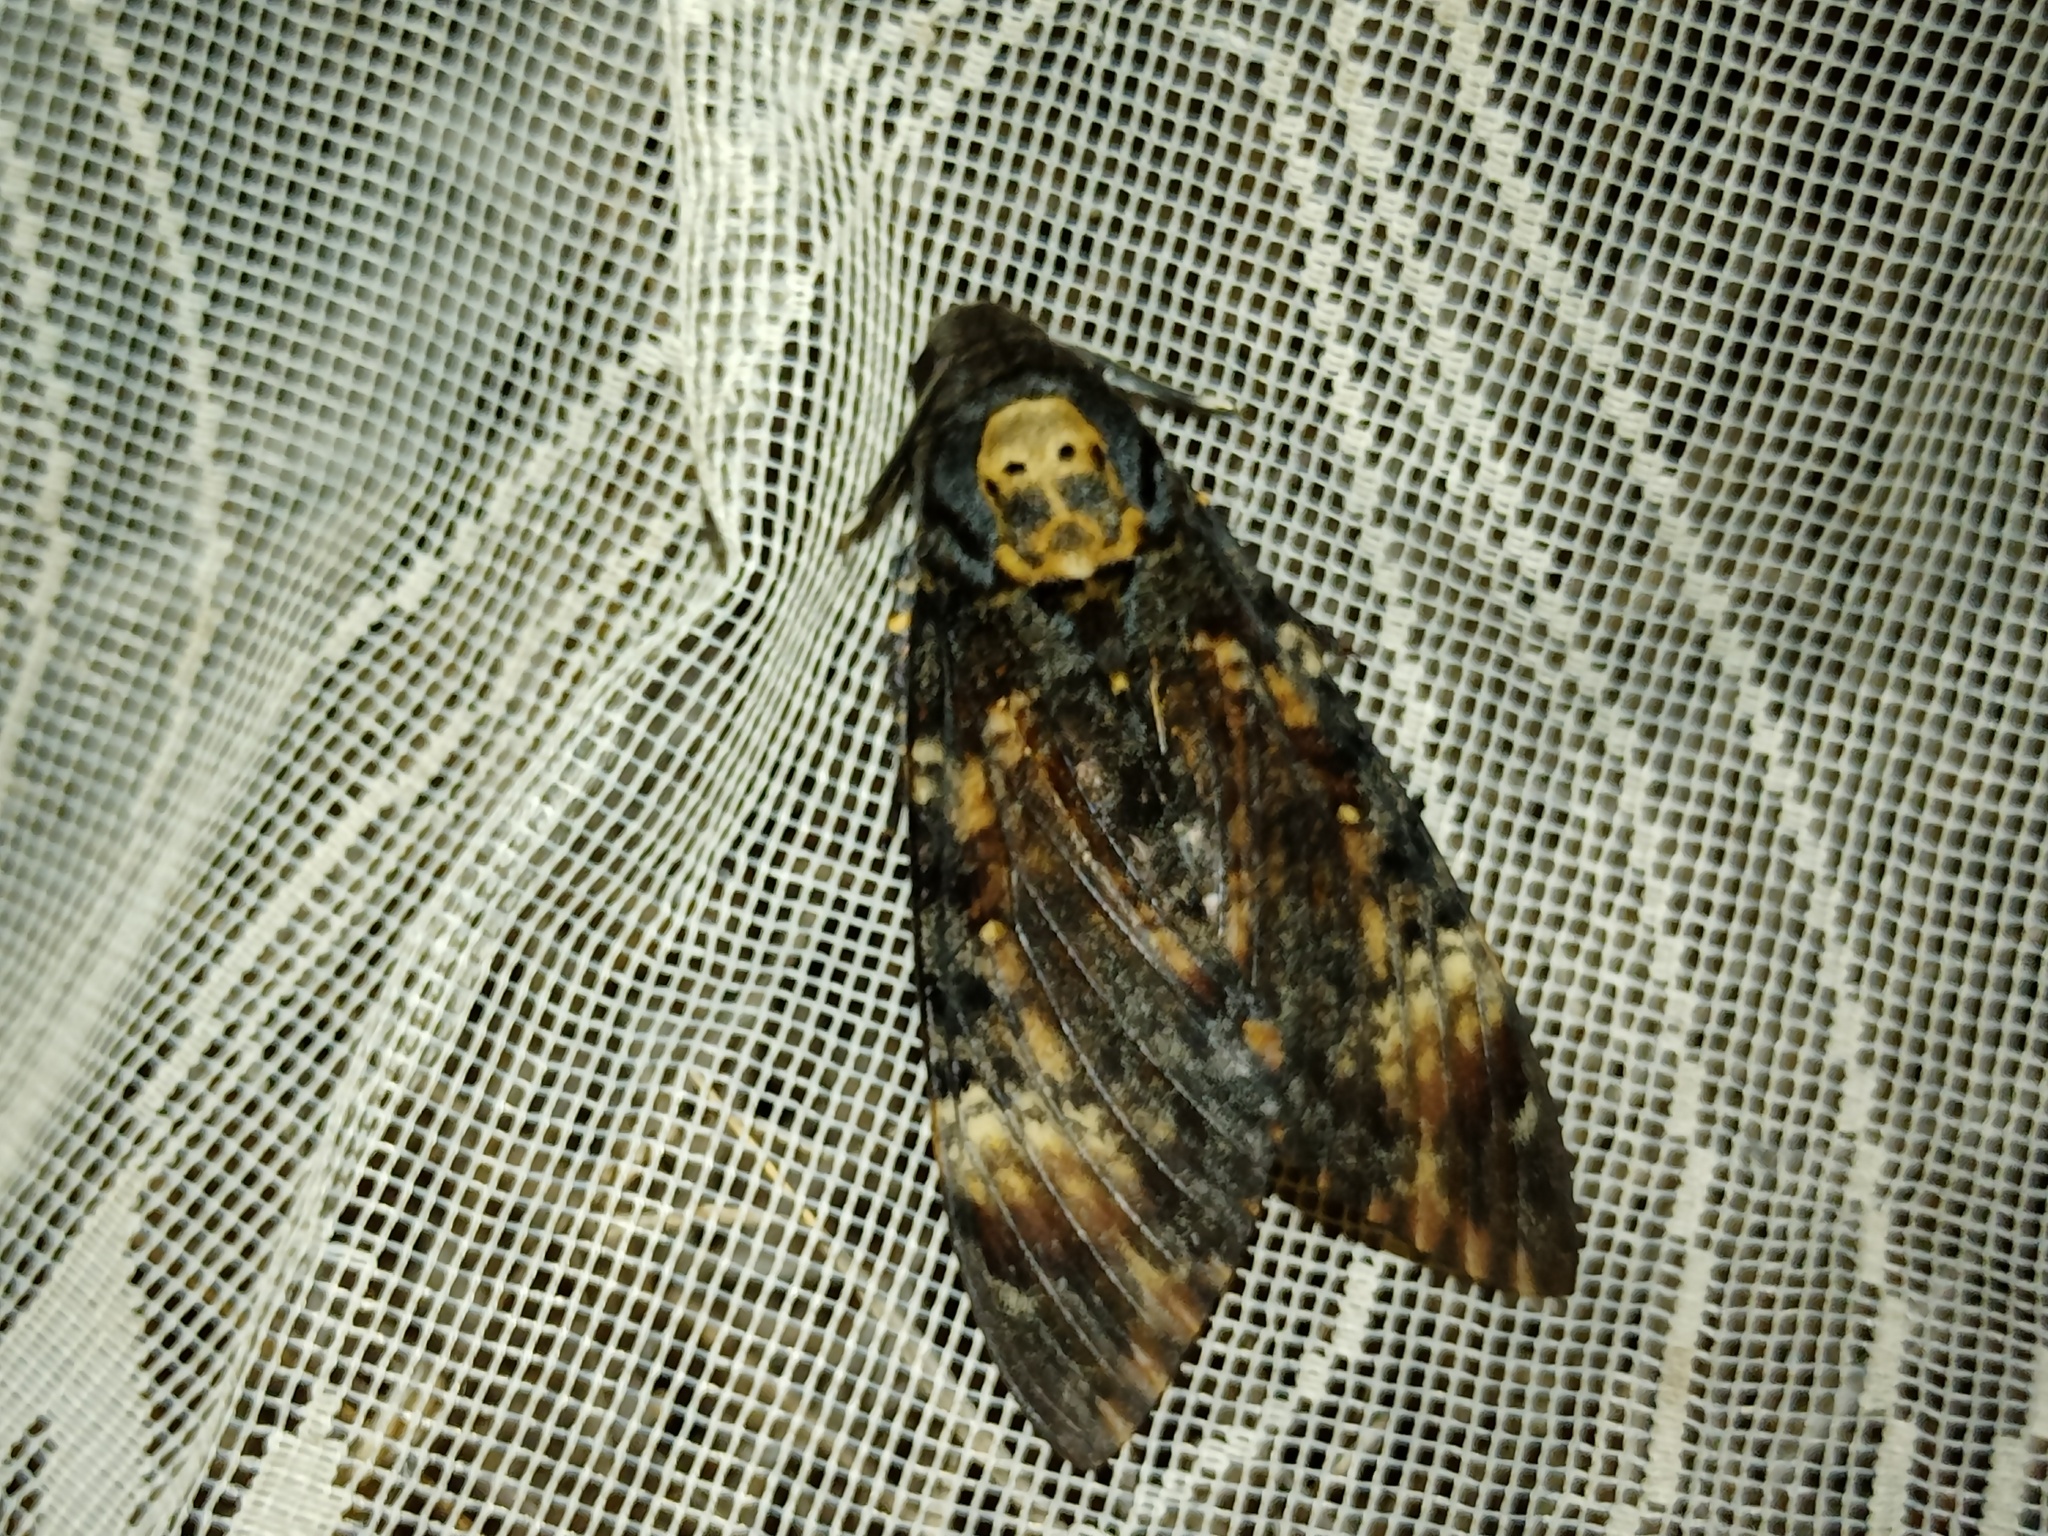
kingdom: Animalia
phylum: Arthropoda
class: Insecta
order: Lepidoptera
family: Sphingidae
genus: Acherontia
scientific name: Acherontia atropos
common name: Death's-head hawk moth
